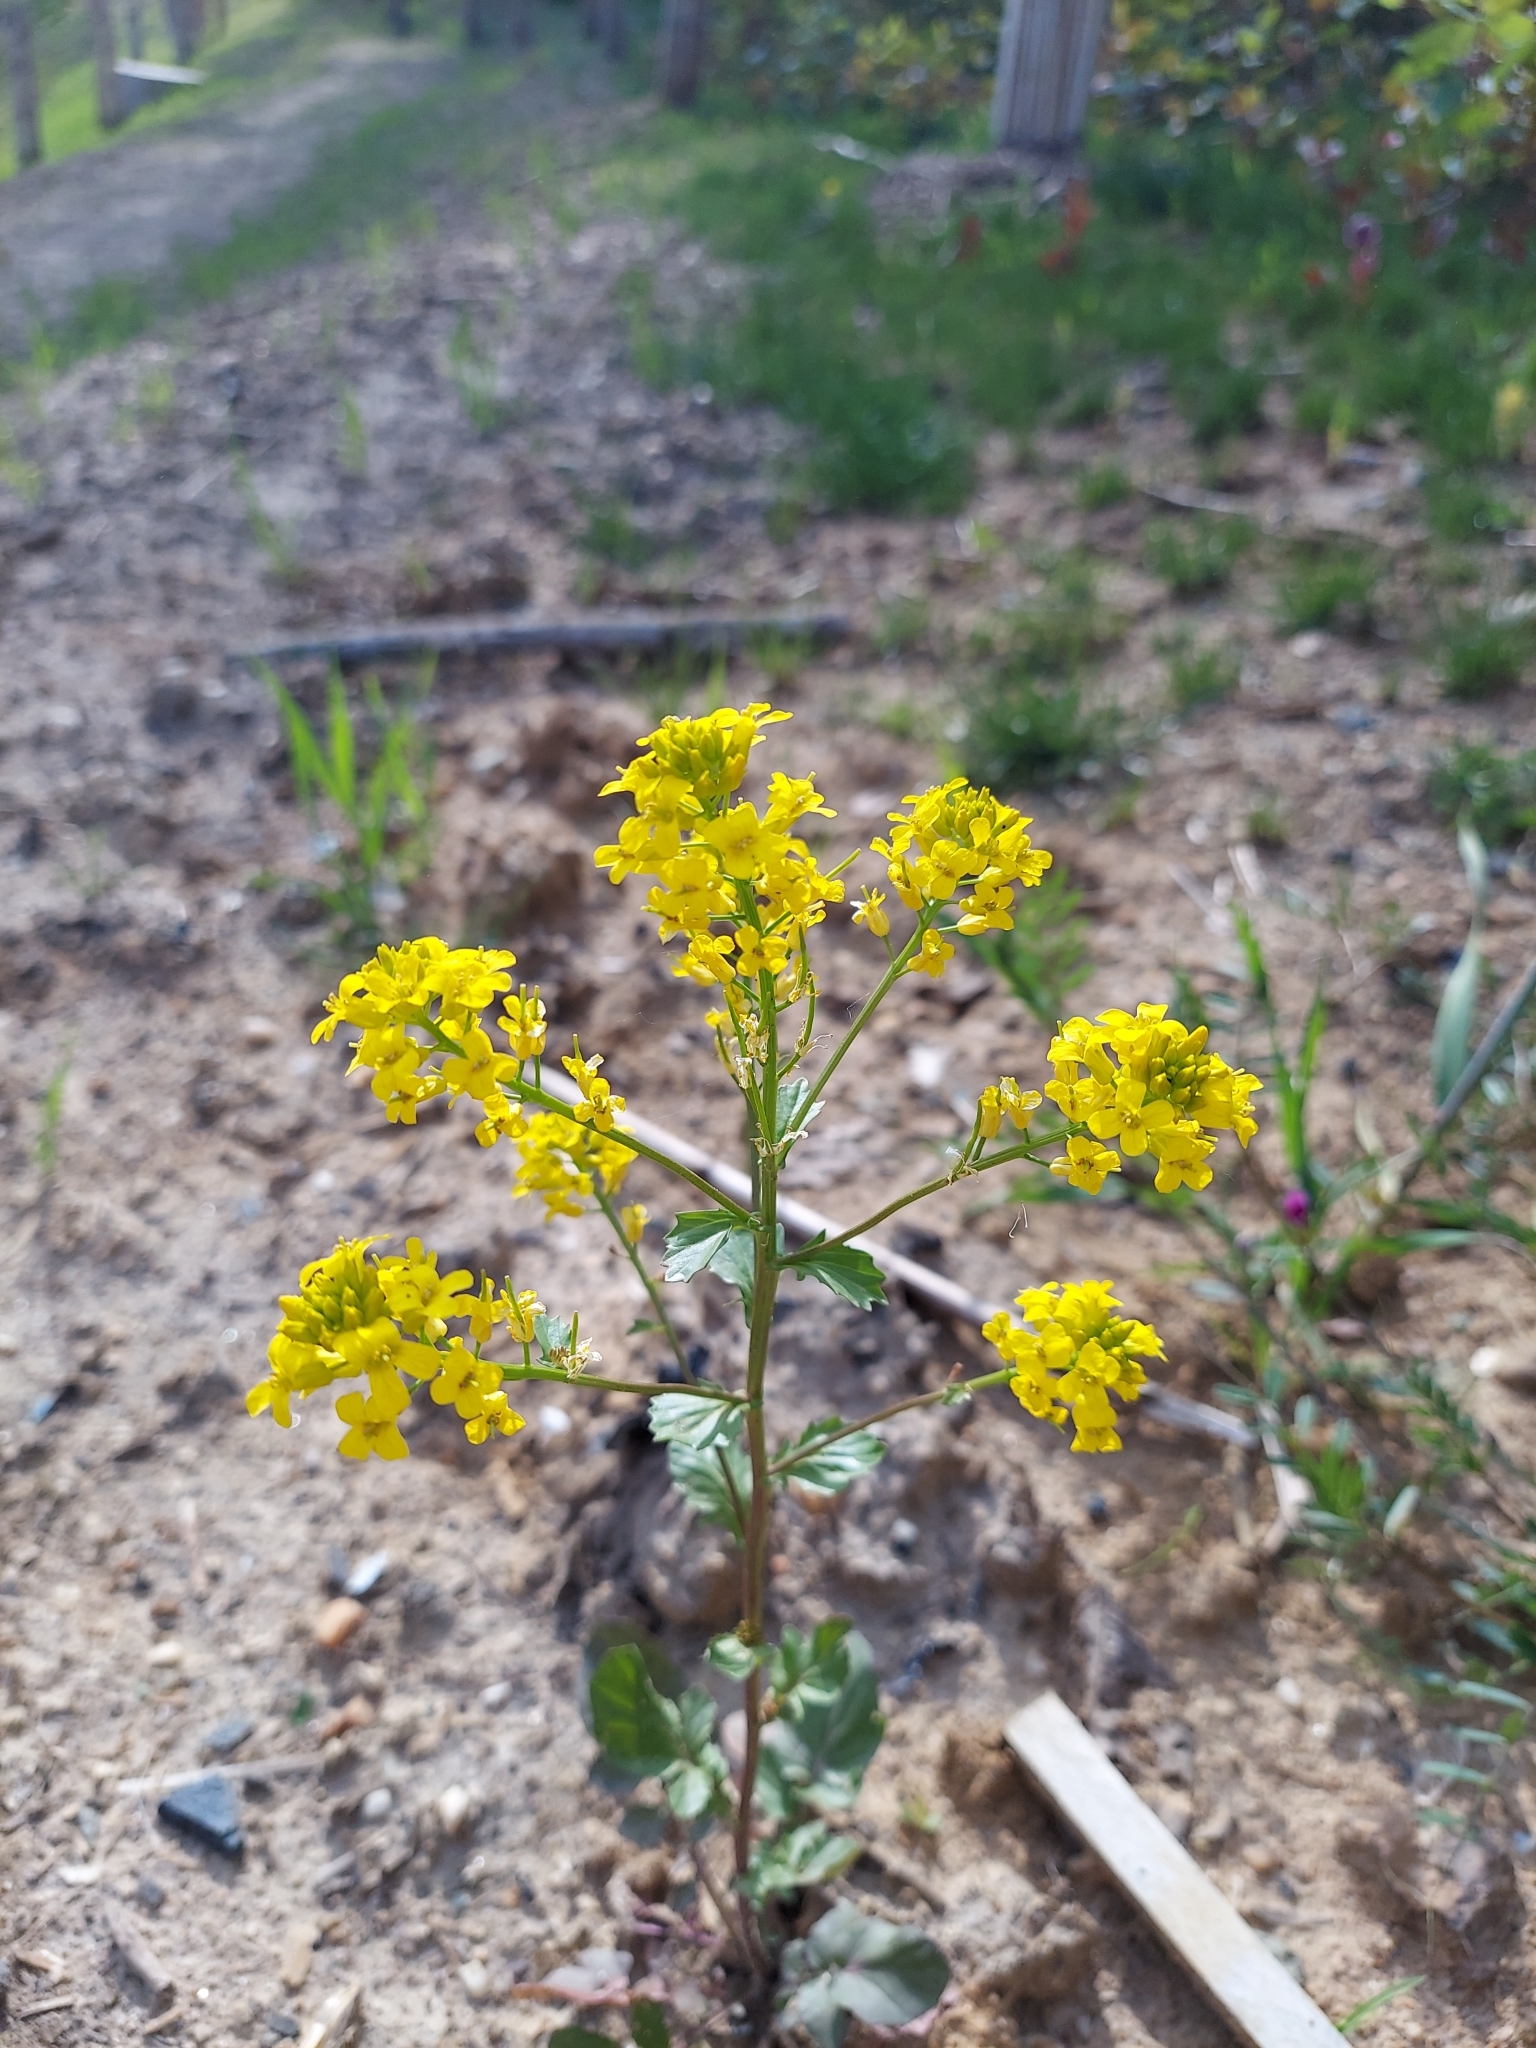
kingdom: Plantae
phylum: Tracheophyta
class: Magnoliopsida
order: Brassicales
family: Brassicaceae
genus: Barbarea
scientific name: Barbarea vulgaris
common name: Cressy-greens
